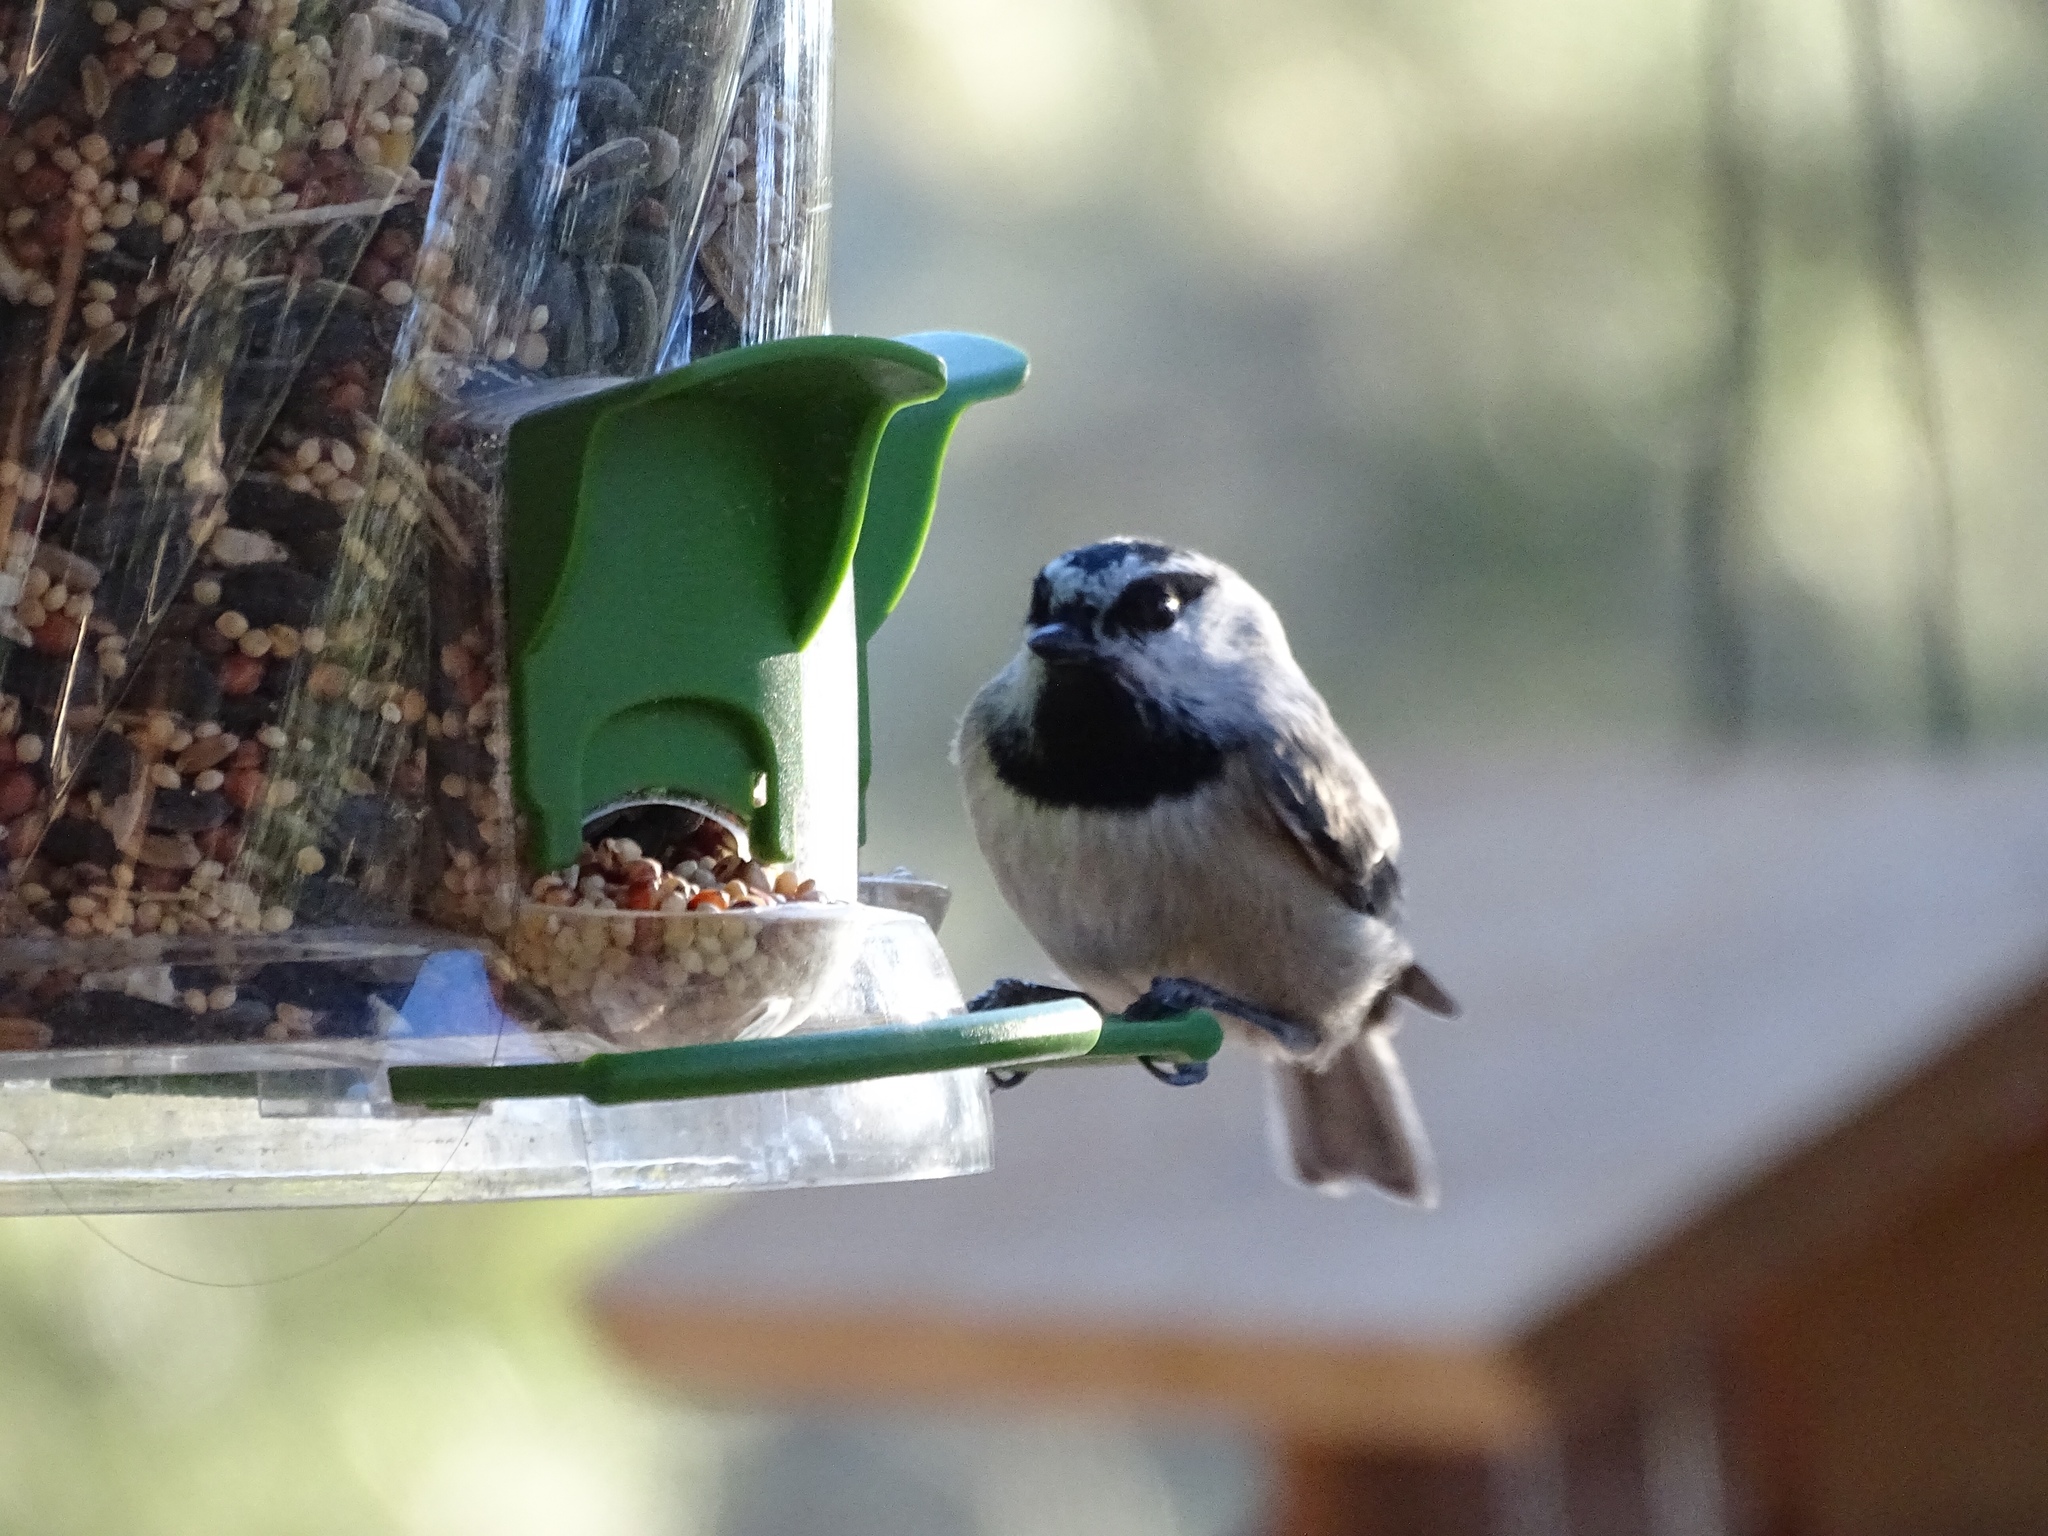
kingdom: Animalia
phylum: Chordata
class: Aves
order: Passeriformes
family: Paridae
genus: Poecile
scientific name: Poecile gambeli
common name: Mountain chickadee
